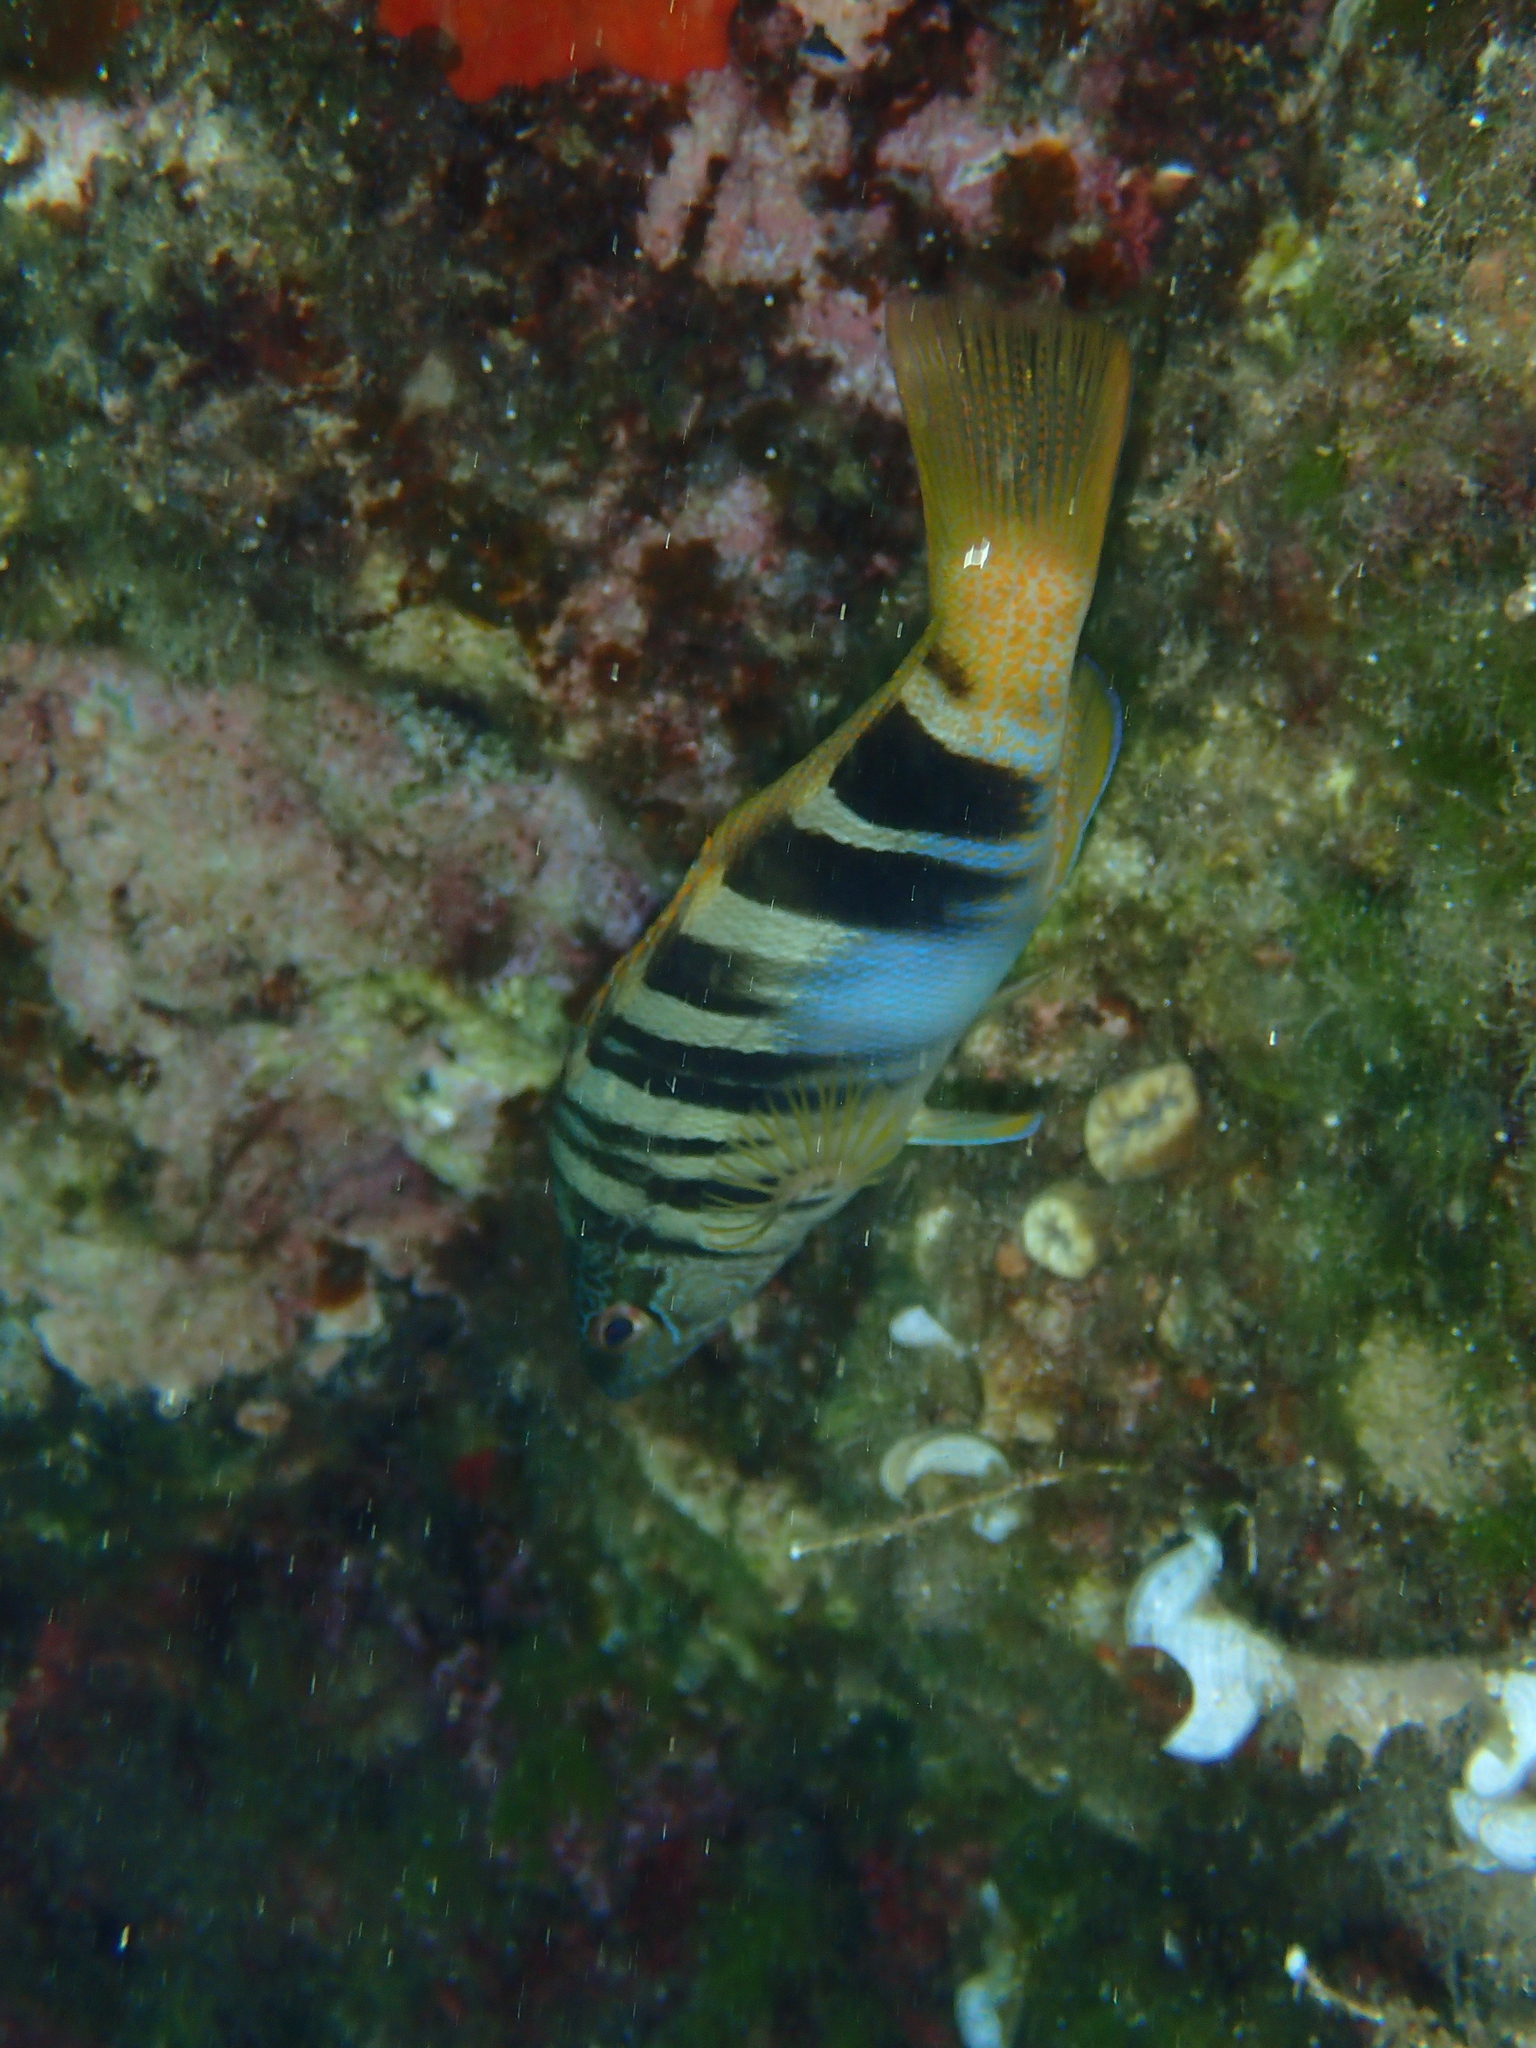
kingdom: Animalia
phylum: Chordata
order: Perciformes
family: Serranidae
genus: Serranus
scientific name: Serranus scriba
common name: Painted comber
